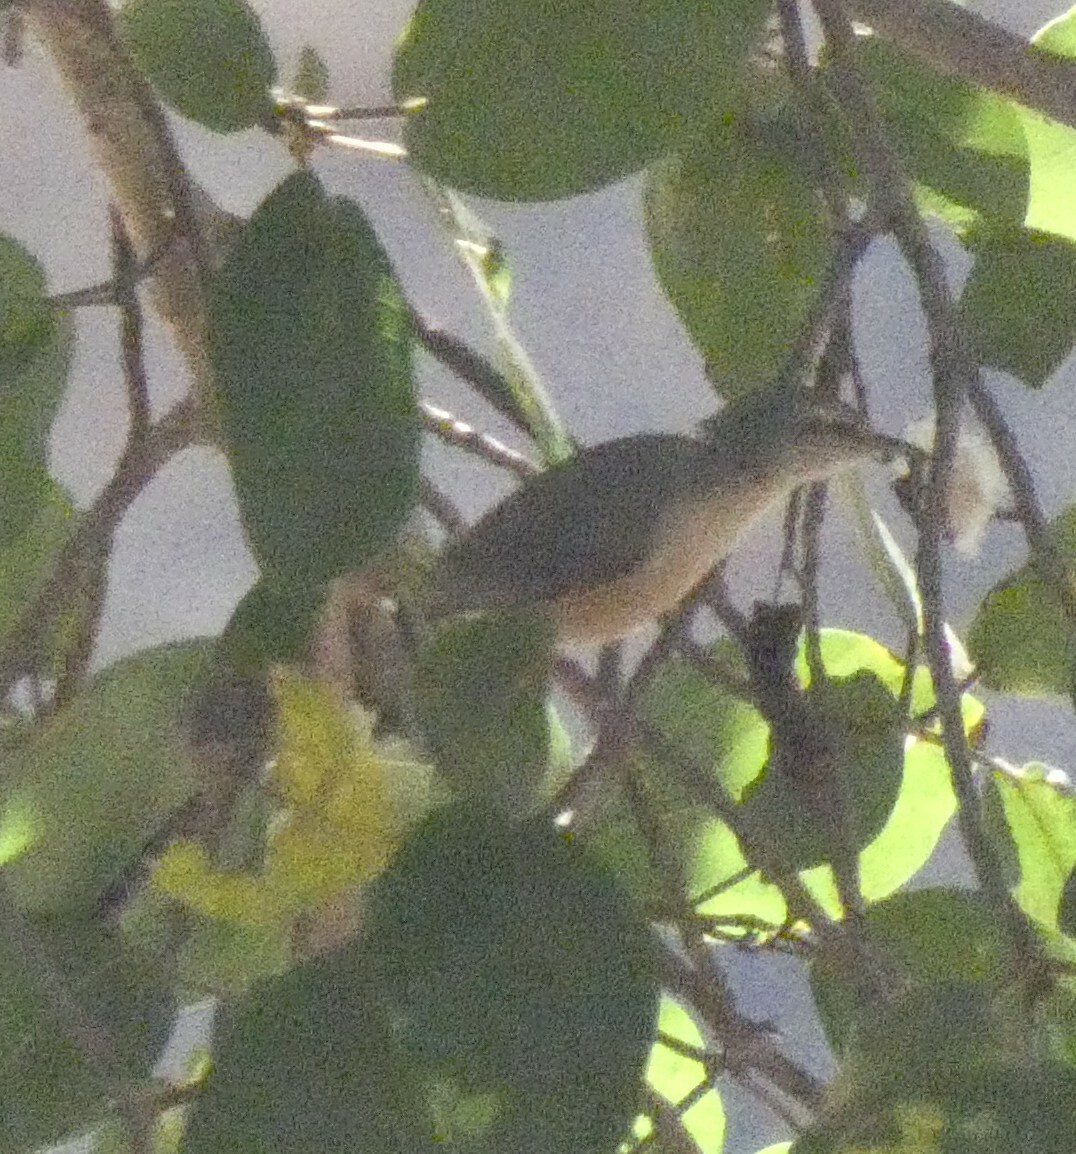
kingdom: Animalia
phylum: Chordata
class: Aves
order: Passeriformes
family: Macrosphenidae
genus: Sylvietta
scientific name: Sylvietta rufescens
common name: Long-billed crombec
